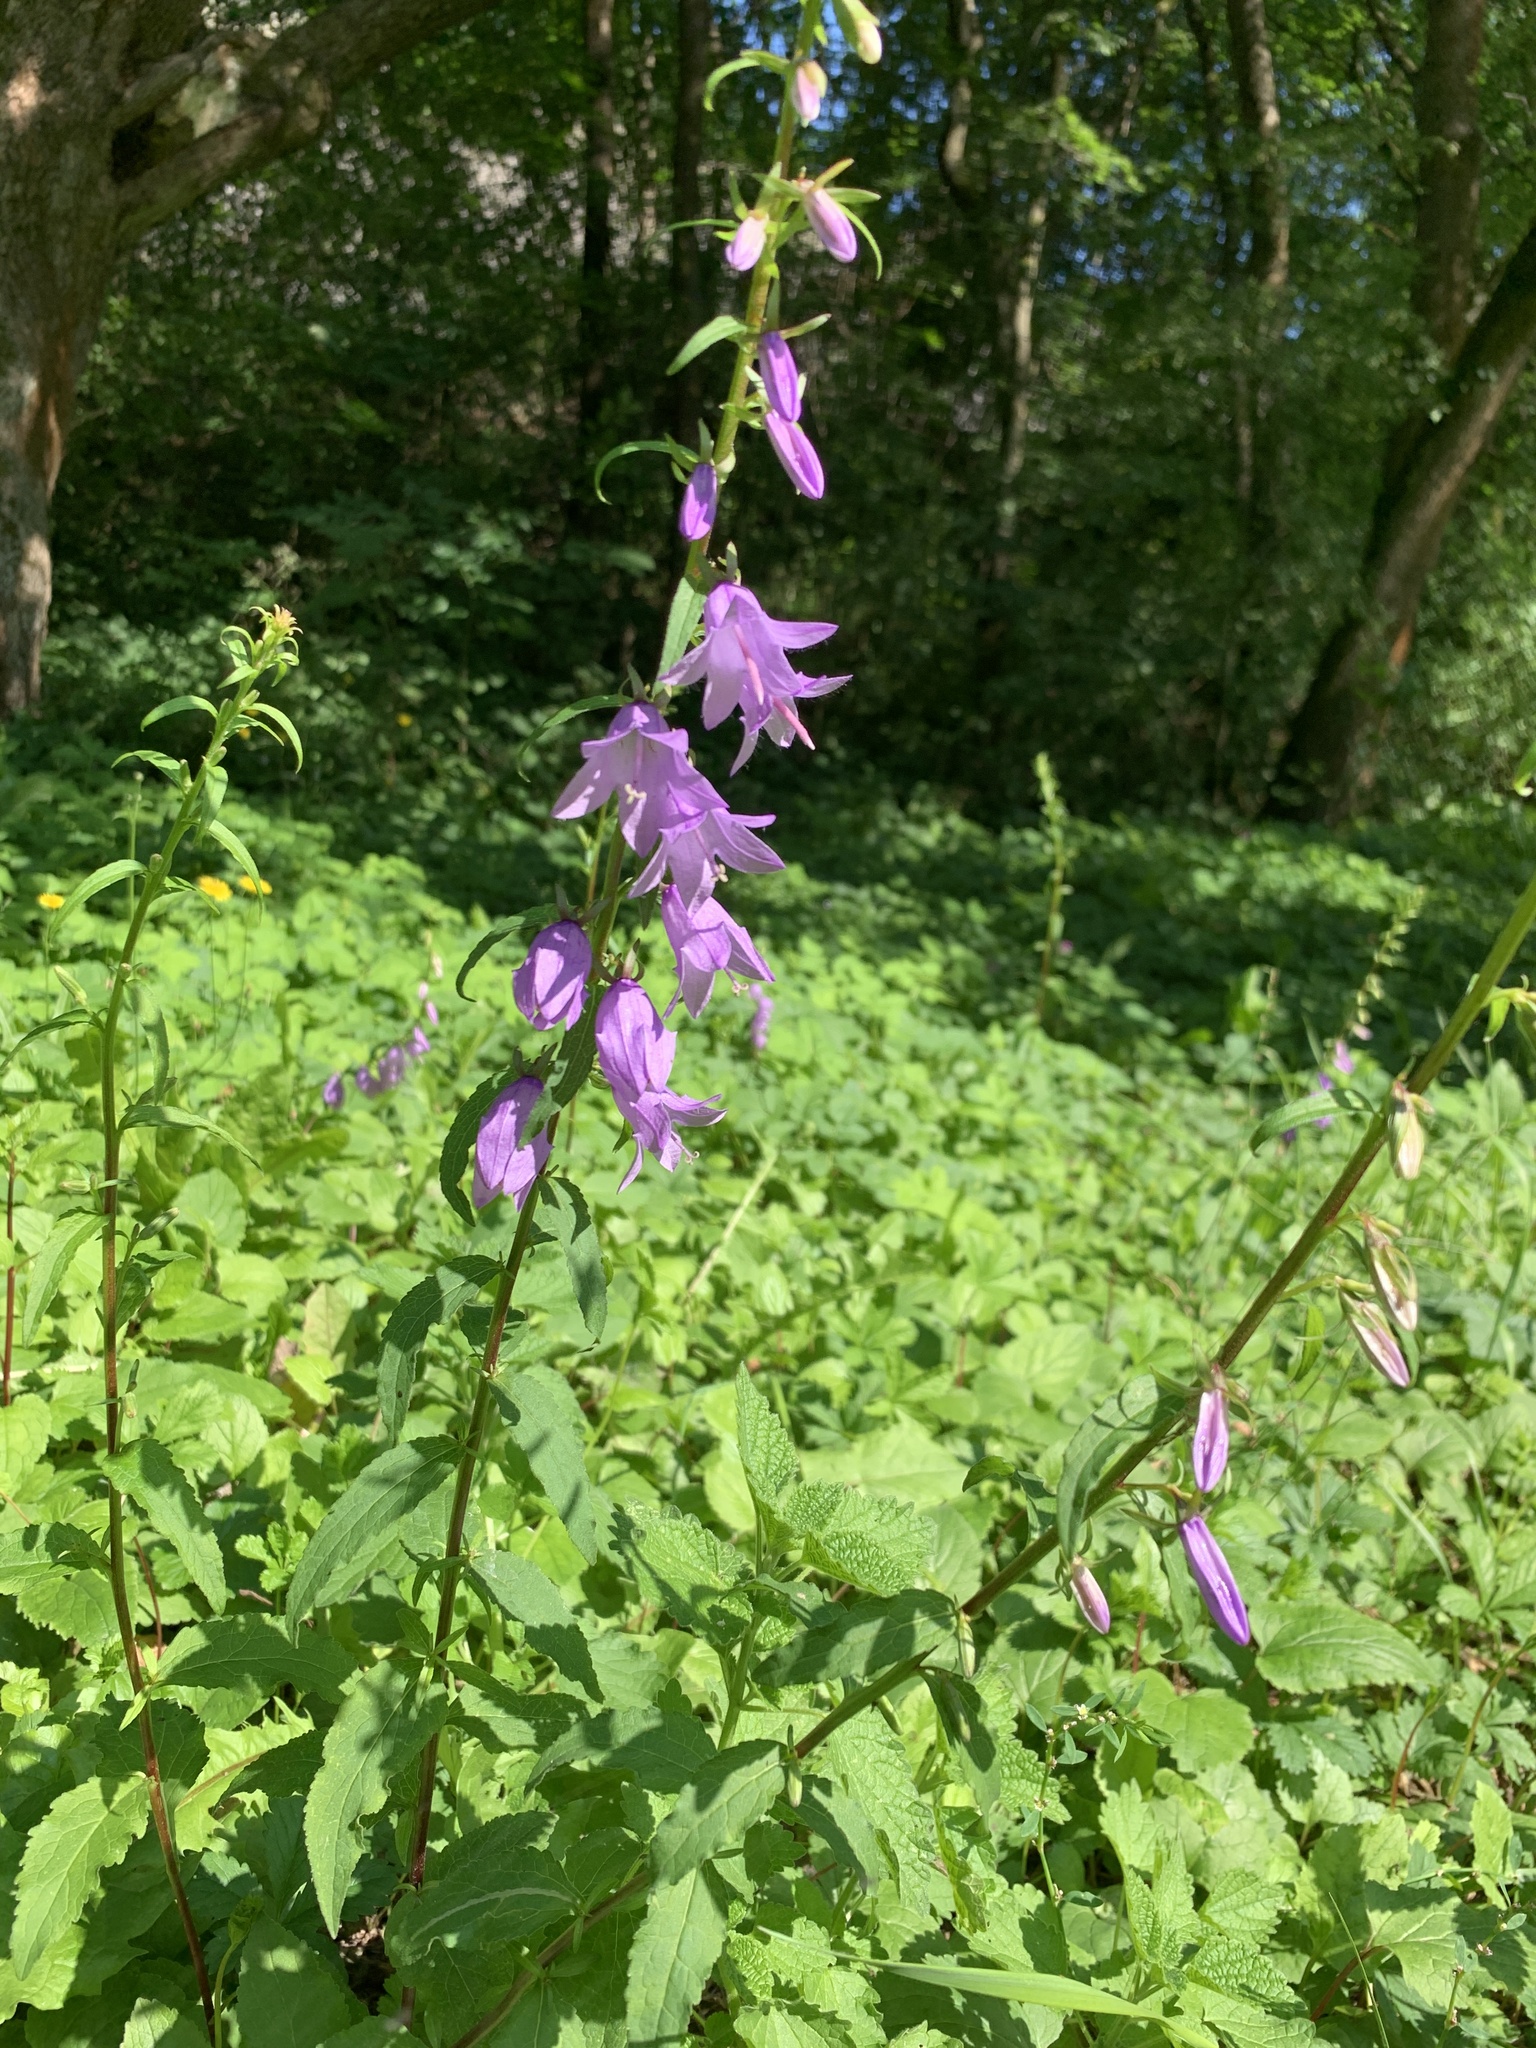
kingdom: Plantae
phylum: Tracheophyta
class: Magnoliopsida
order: Asterales
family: Campanulaceae
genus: Campanula
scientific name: Campanula rapunculoides
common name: Creeping bellflower
